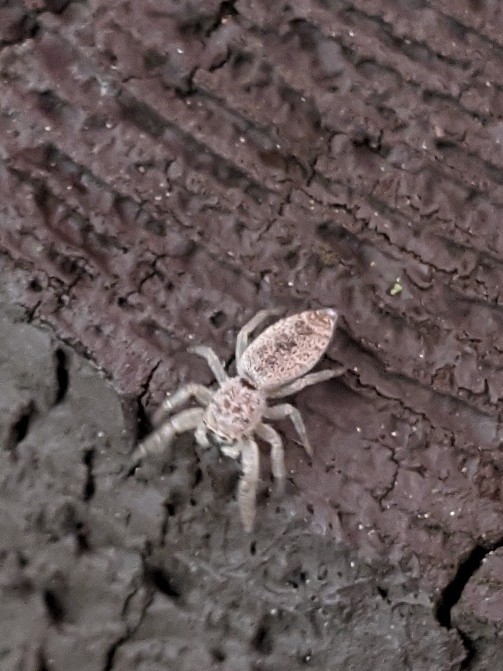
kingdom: Animalia
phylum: Arthropoda
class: Arachnida
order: Araneae
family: Salticidae
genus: Hentzia
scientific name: Hentzia
